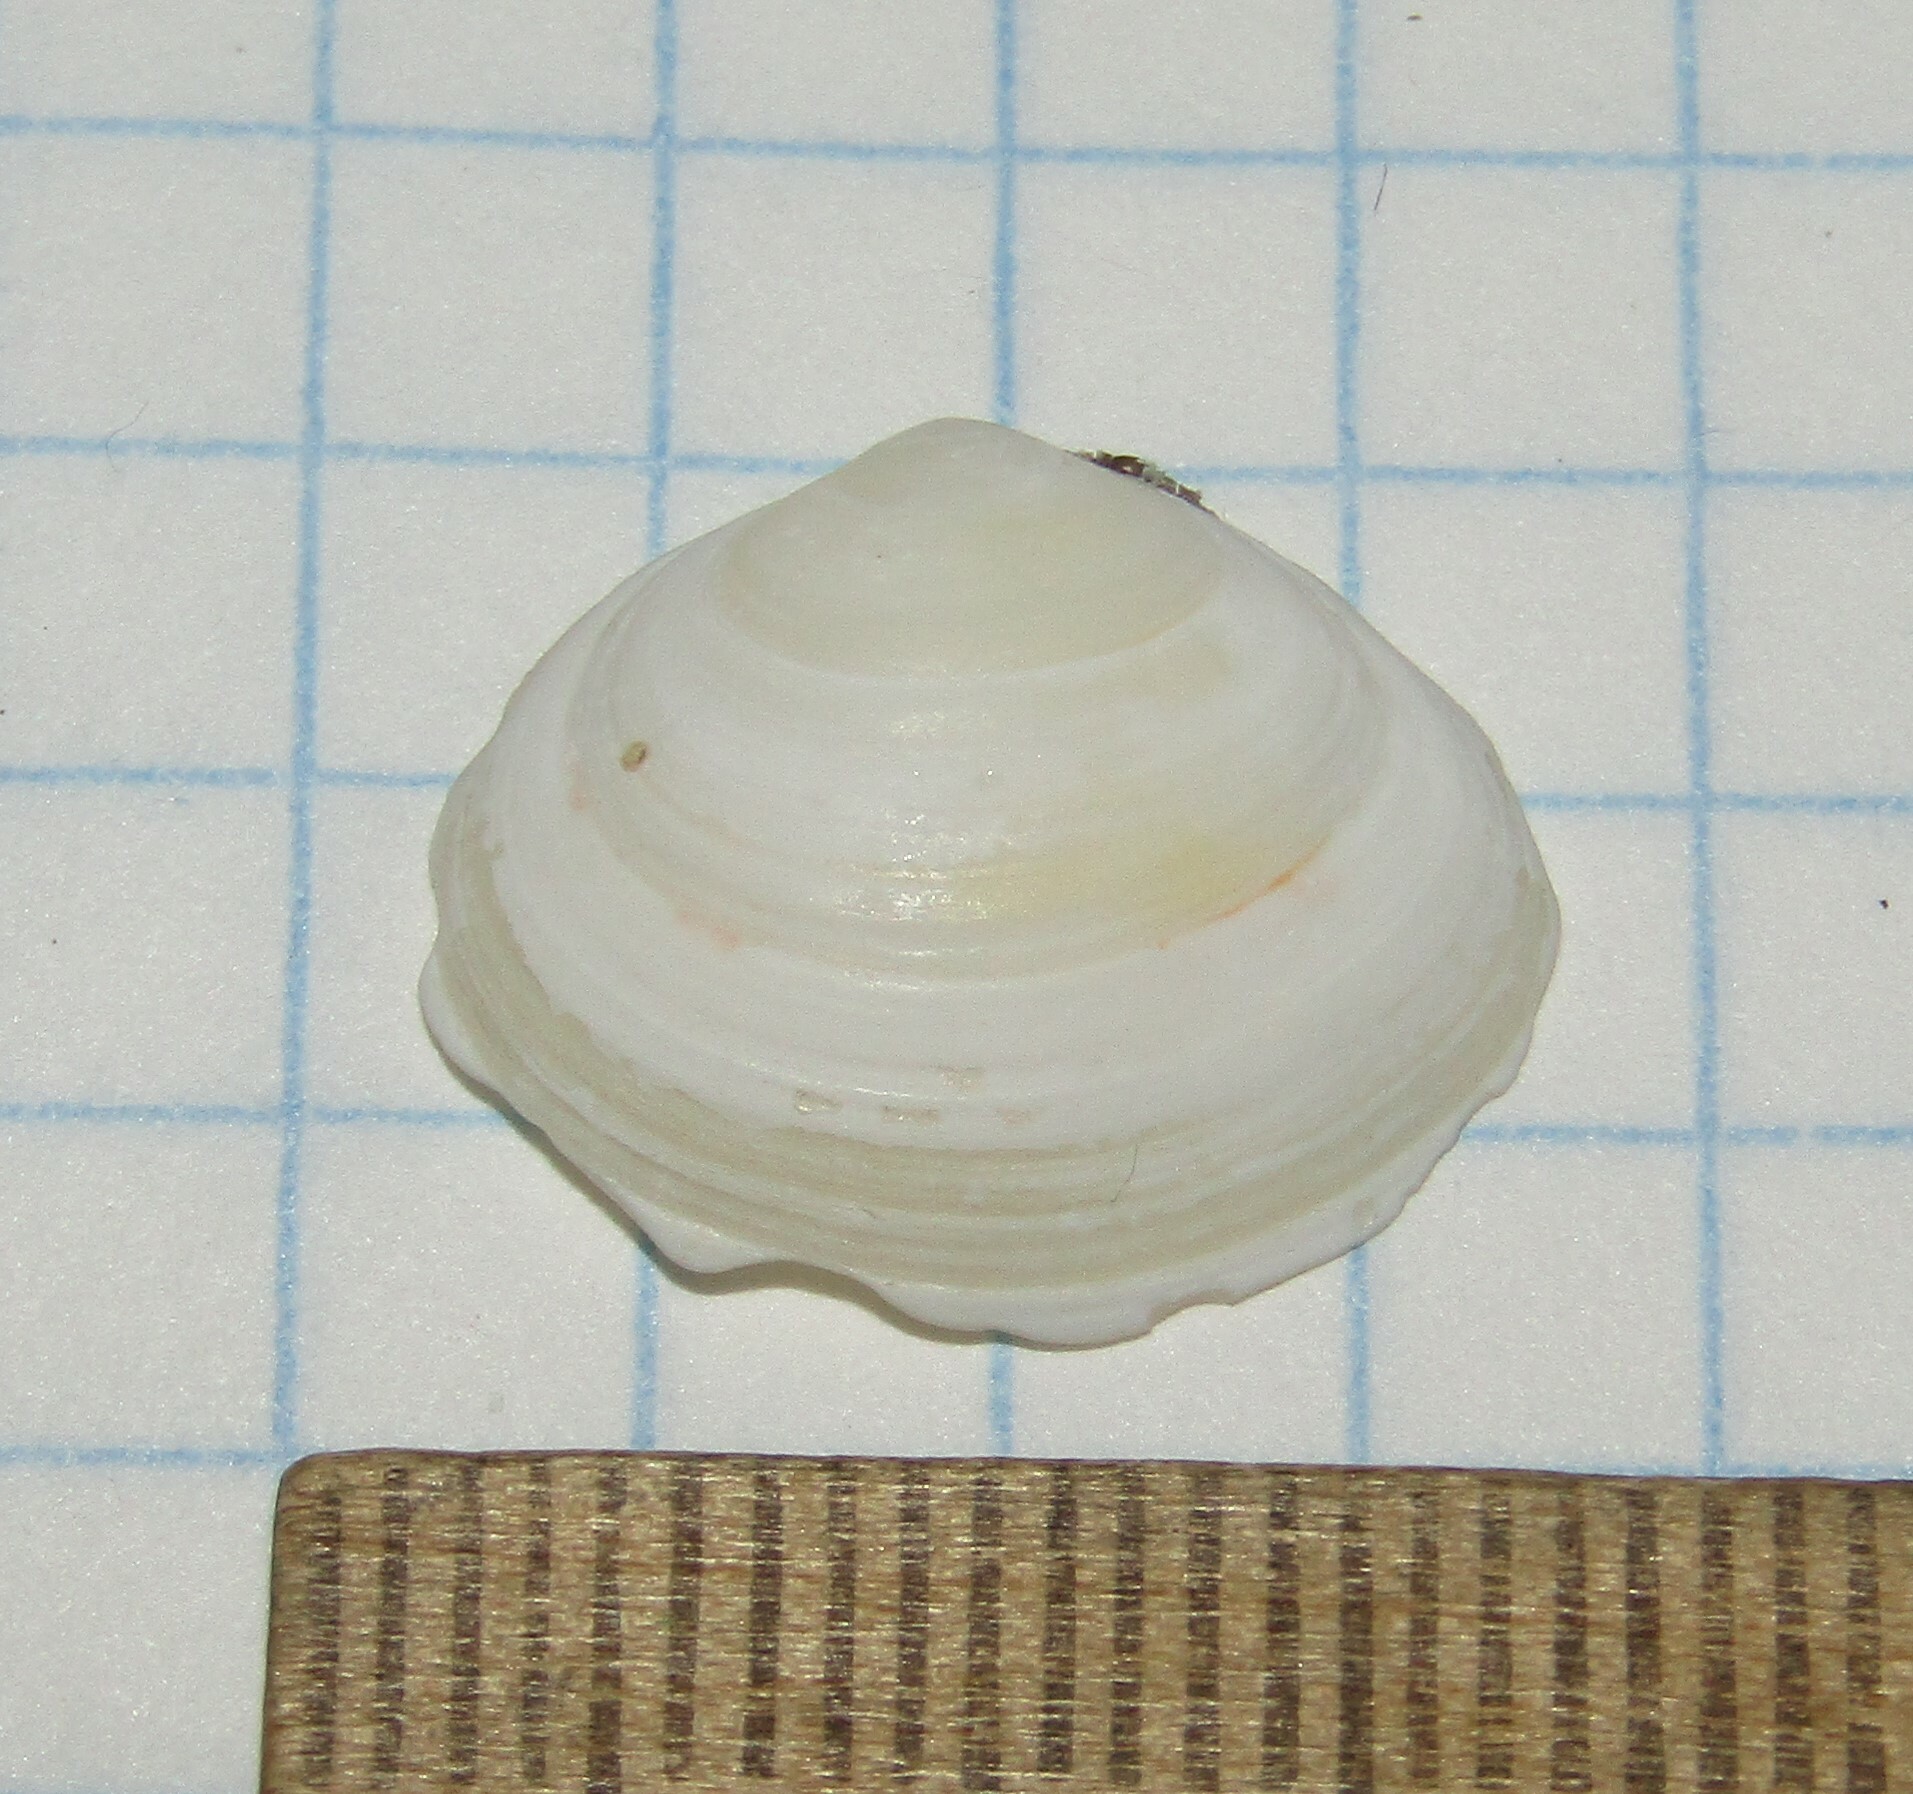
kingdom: Animalia
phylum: Mollusca
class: Bivalvia
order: Cardiida
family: Tellinidae
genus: Macoma
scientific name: Macoma balthica
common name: Baltic tellin
